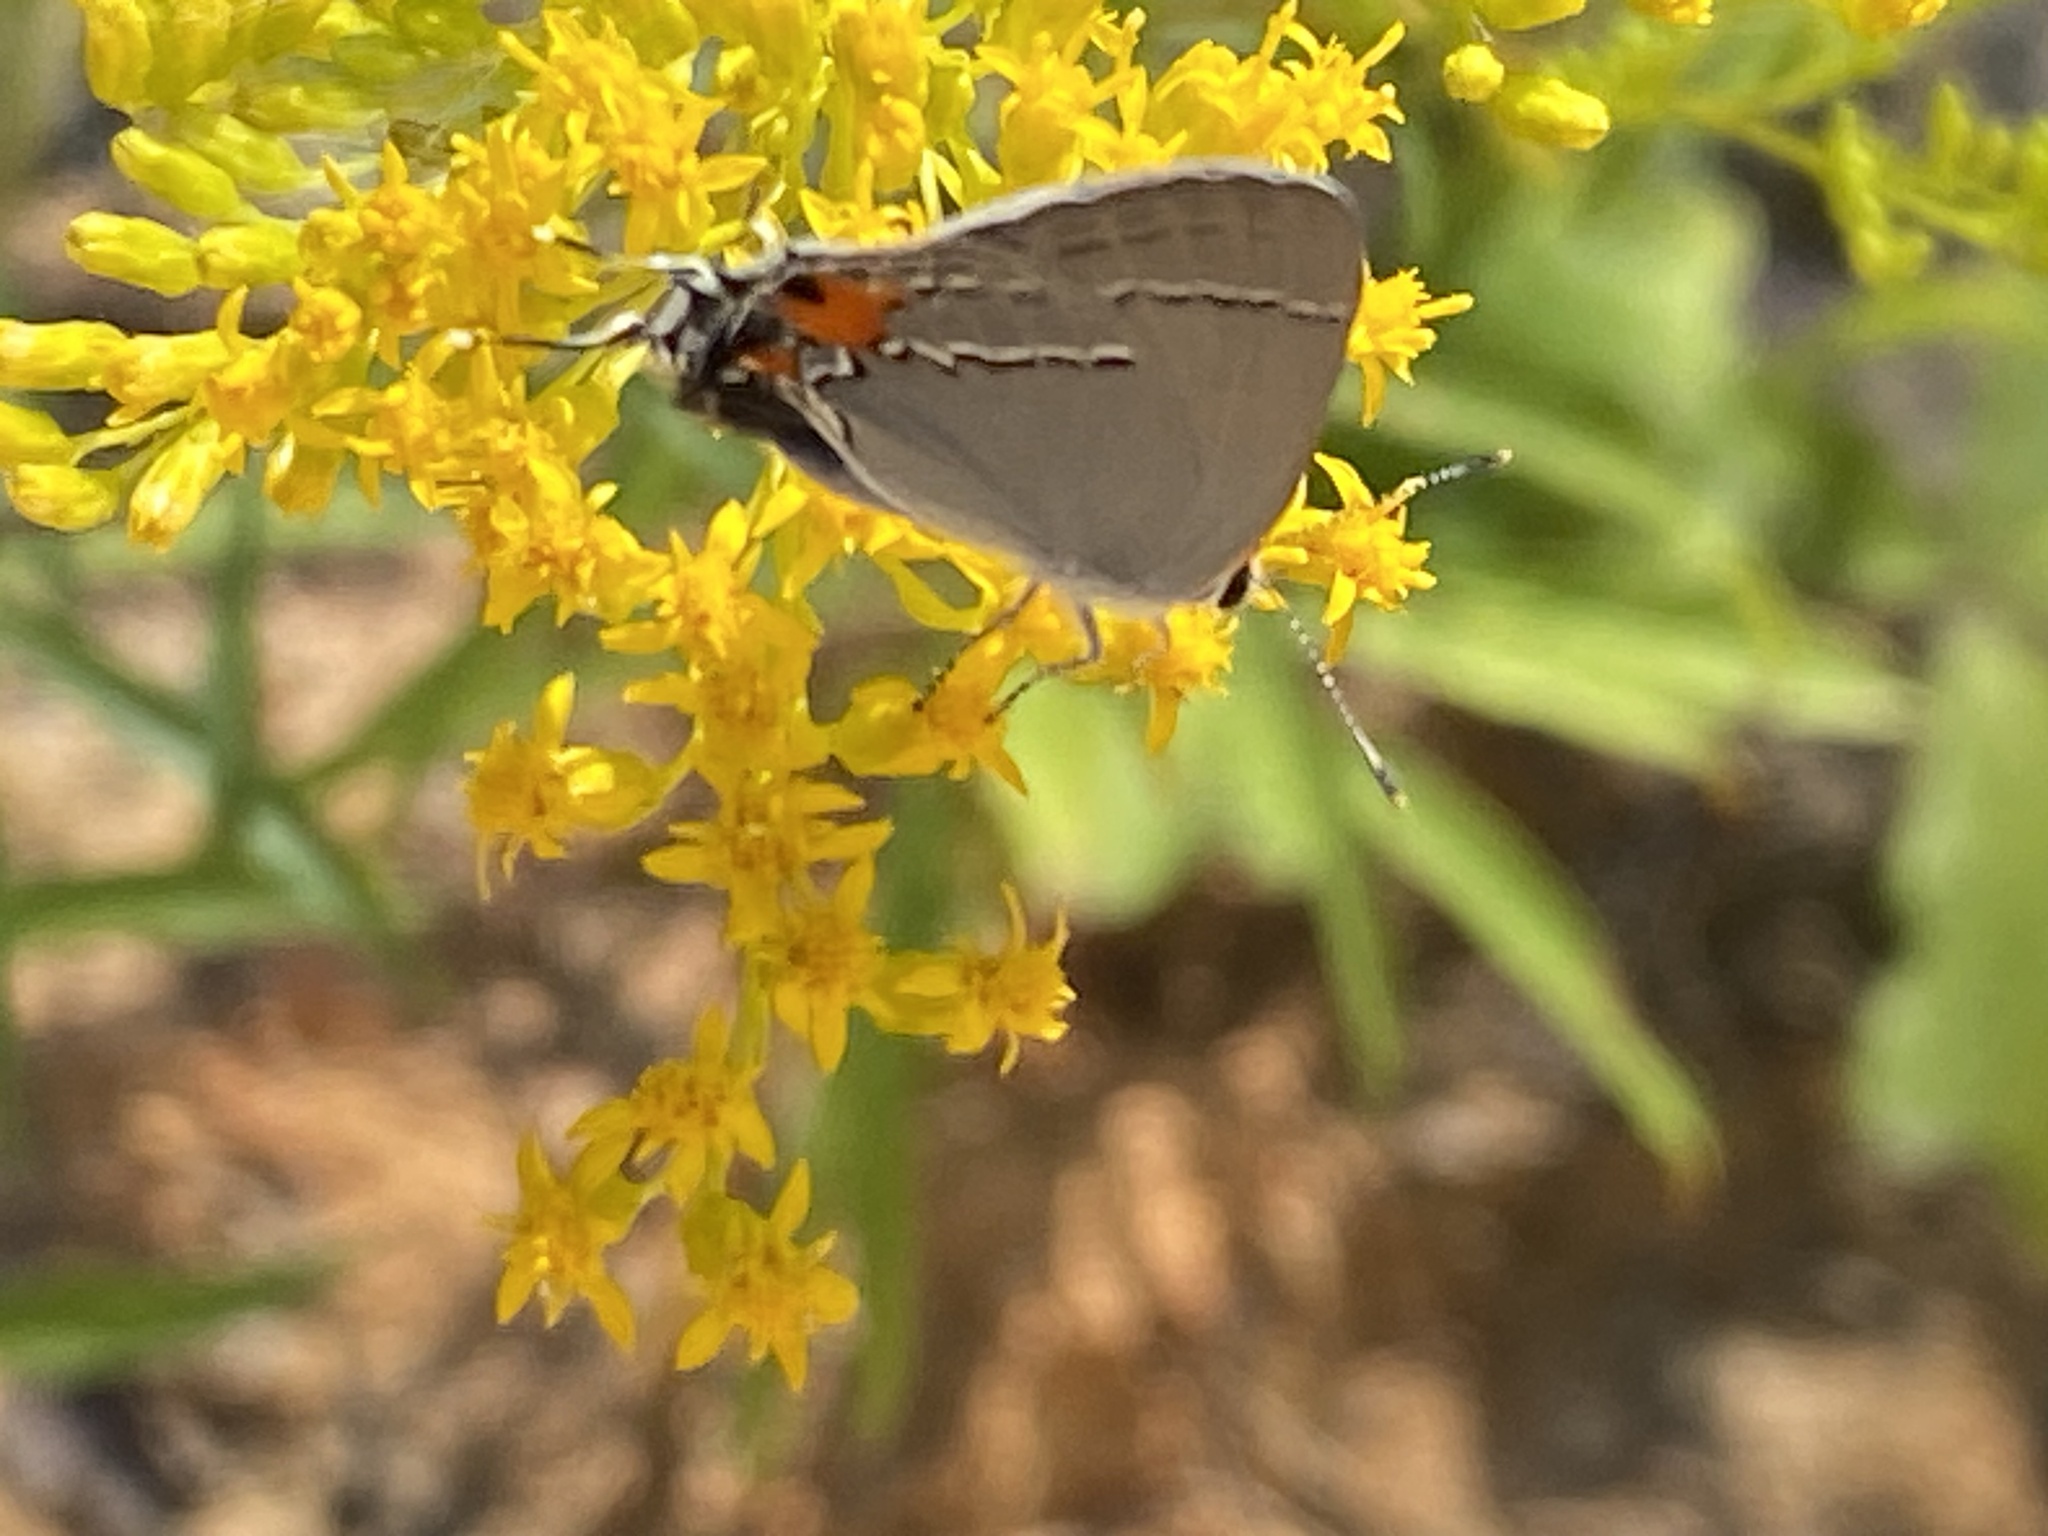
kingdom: Animalia
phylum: Arthropoda
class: Insecta
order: Lepidoptera
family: Lycaenidae
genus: Strymon
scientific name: Strymon melinus
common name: Gray hairstreak
